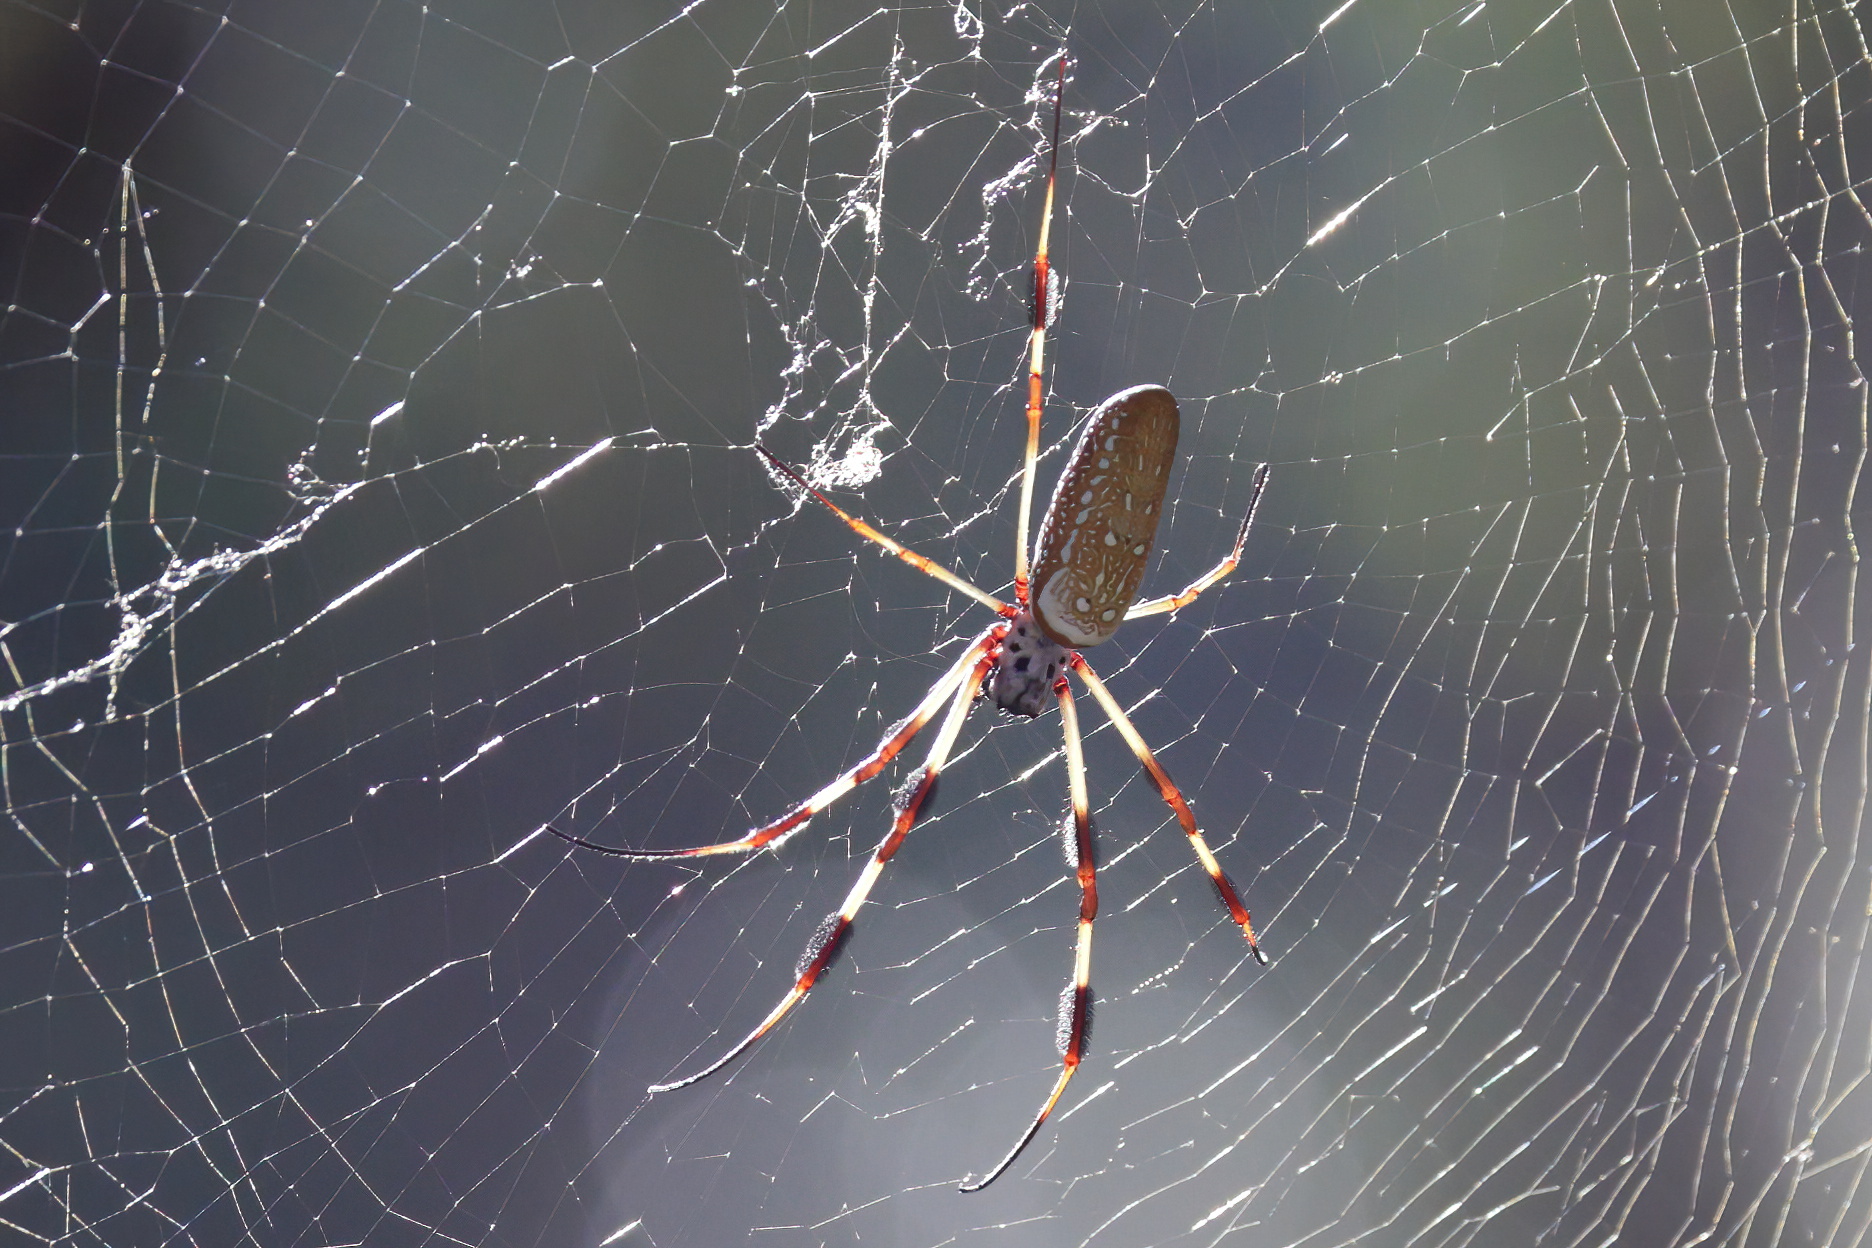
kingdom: Animalia
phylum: Arthropoda
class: Arachnida
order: Araneae
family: Araneidae
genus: Trichonephila
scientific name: Trichonephila clavipes
